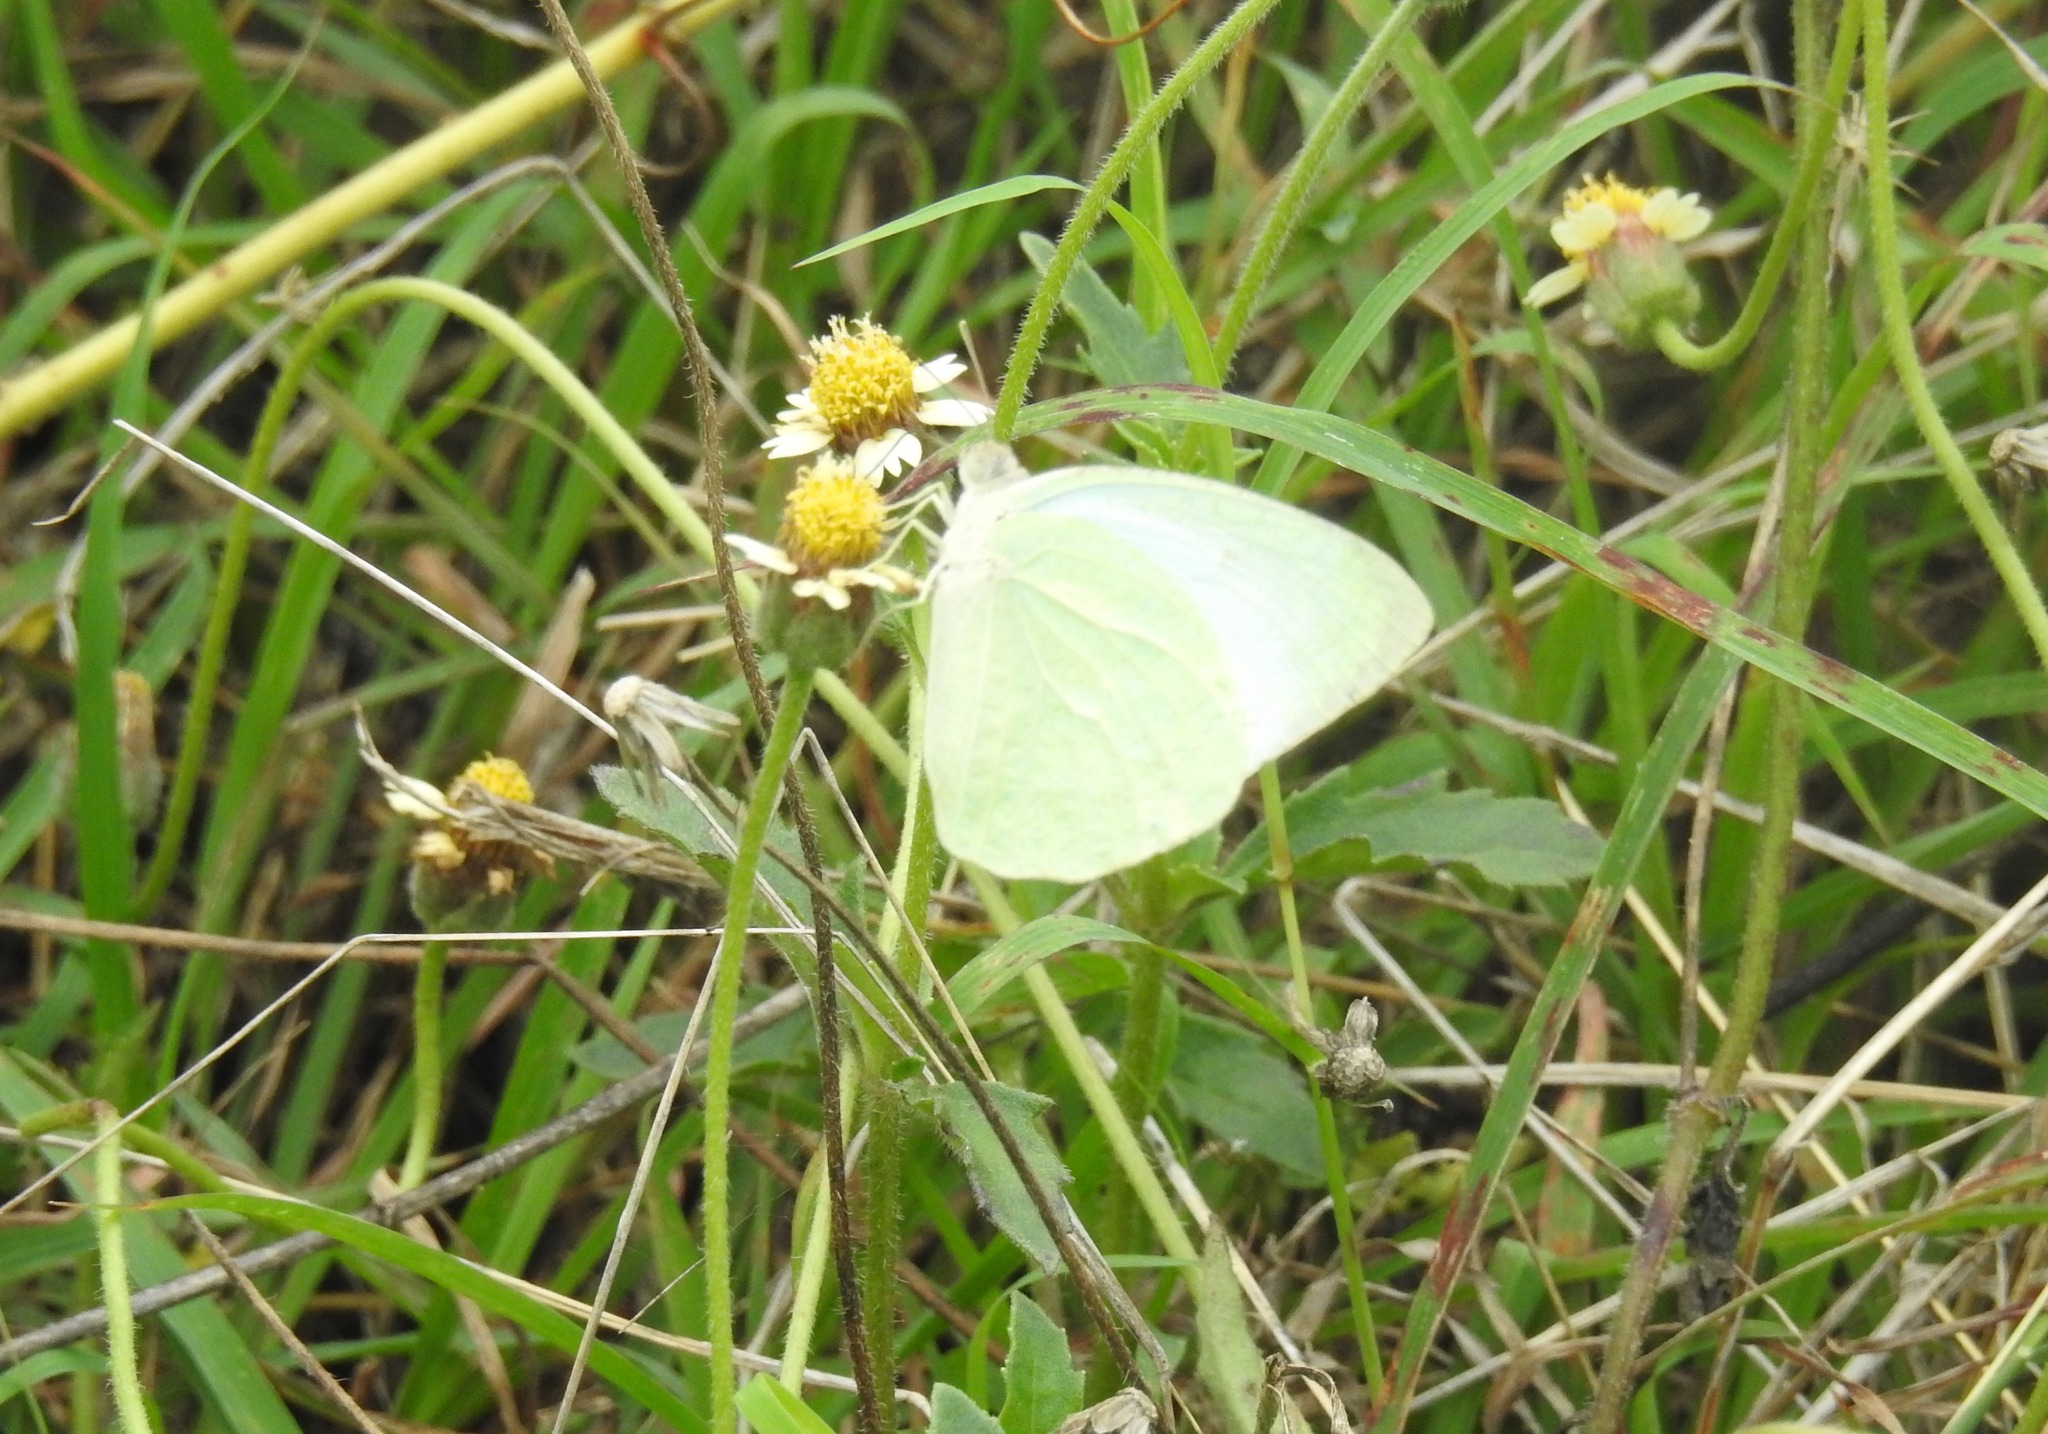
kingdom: Animalia
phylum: Arthropoda
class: Insecta
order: Lepidoptera
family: Pieridae
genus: Catopsilia
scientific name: Catopsilia pyranthe
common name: Mottled emigrant
